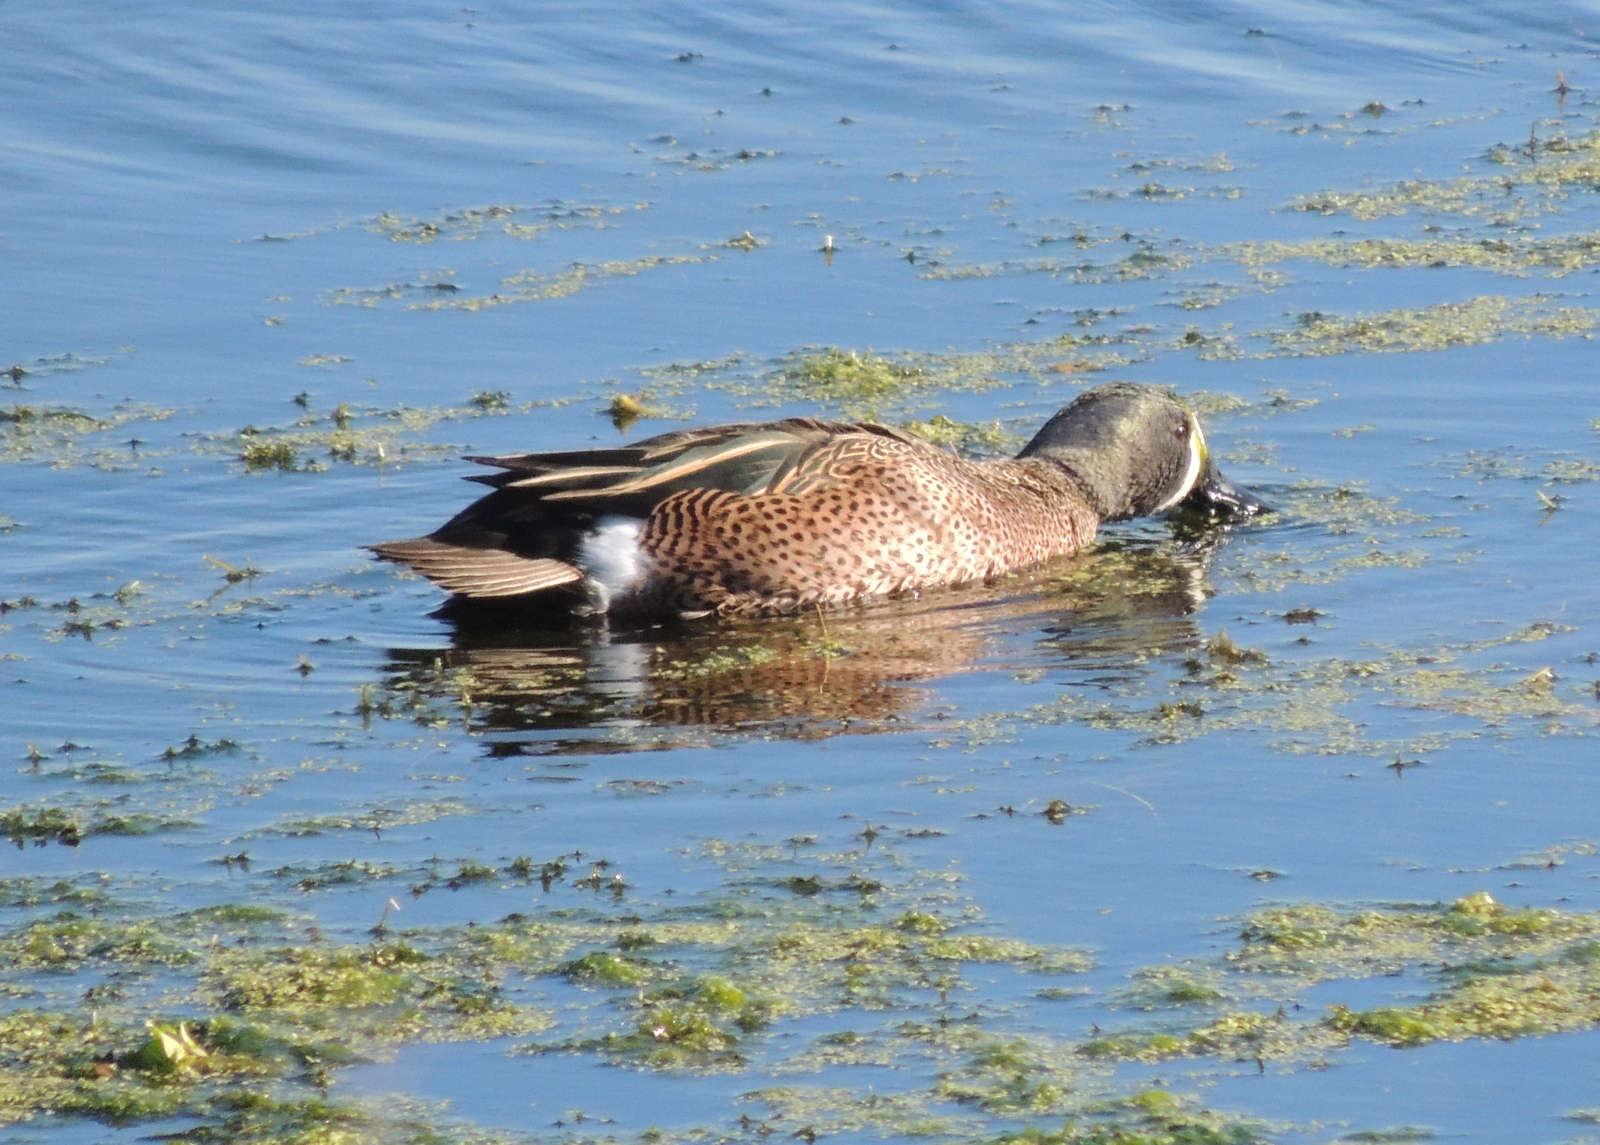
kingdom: Animalia
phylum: Chordata
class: Aves
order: Anseriformes
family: Anatidae
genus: Spatula
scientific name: Spatula discors
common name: Blue-winged teal
